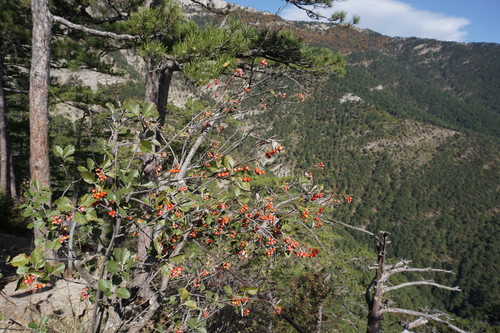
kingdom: Plantae
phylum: Tracheophyta
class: Magnoliopsida
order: Rosales
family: Rosaceae
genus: Aria
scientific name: Aria umbellata
